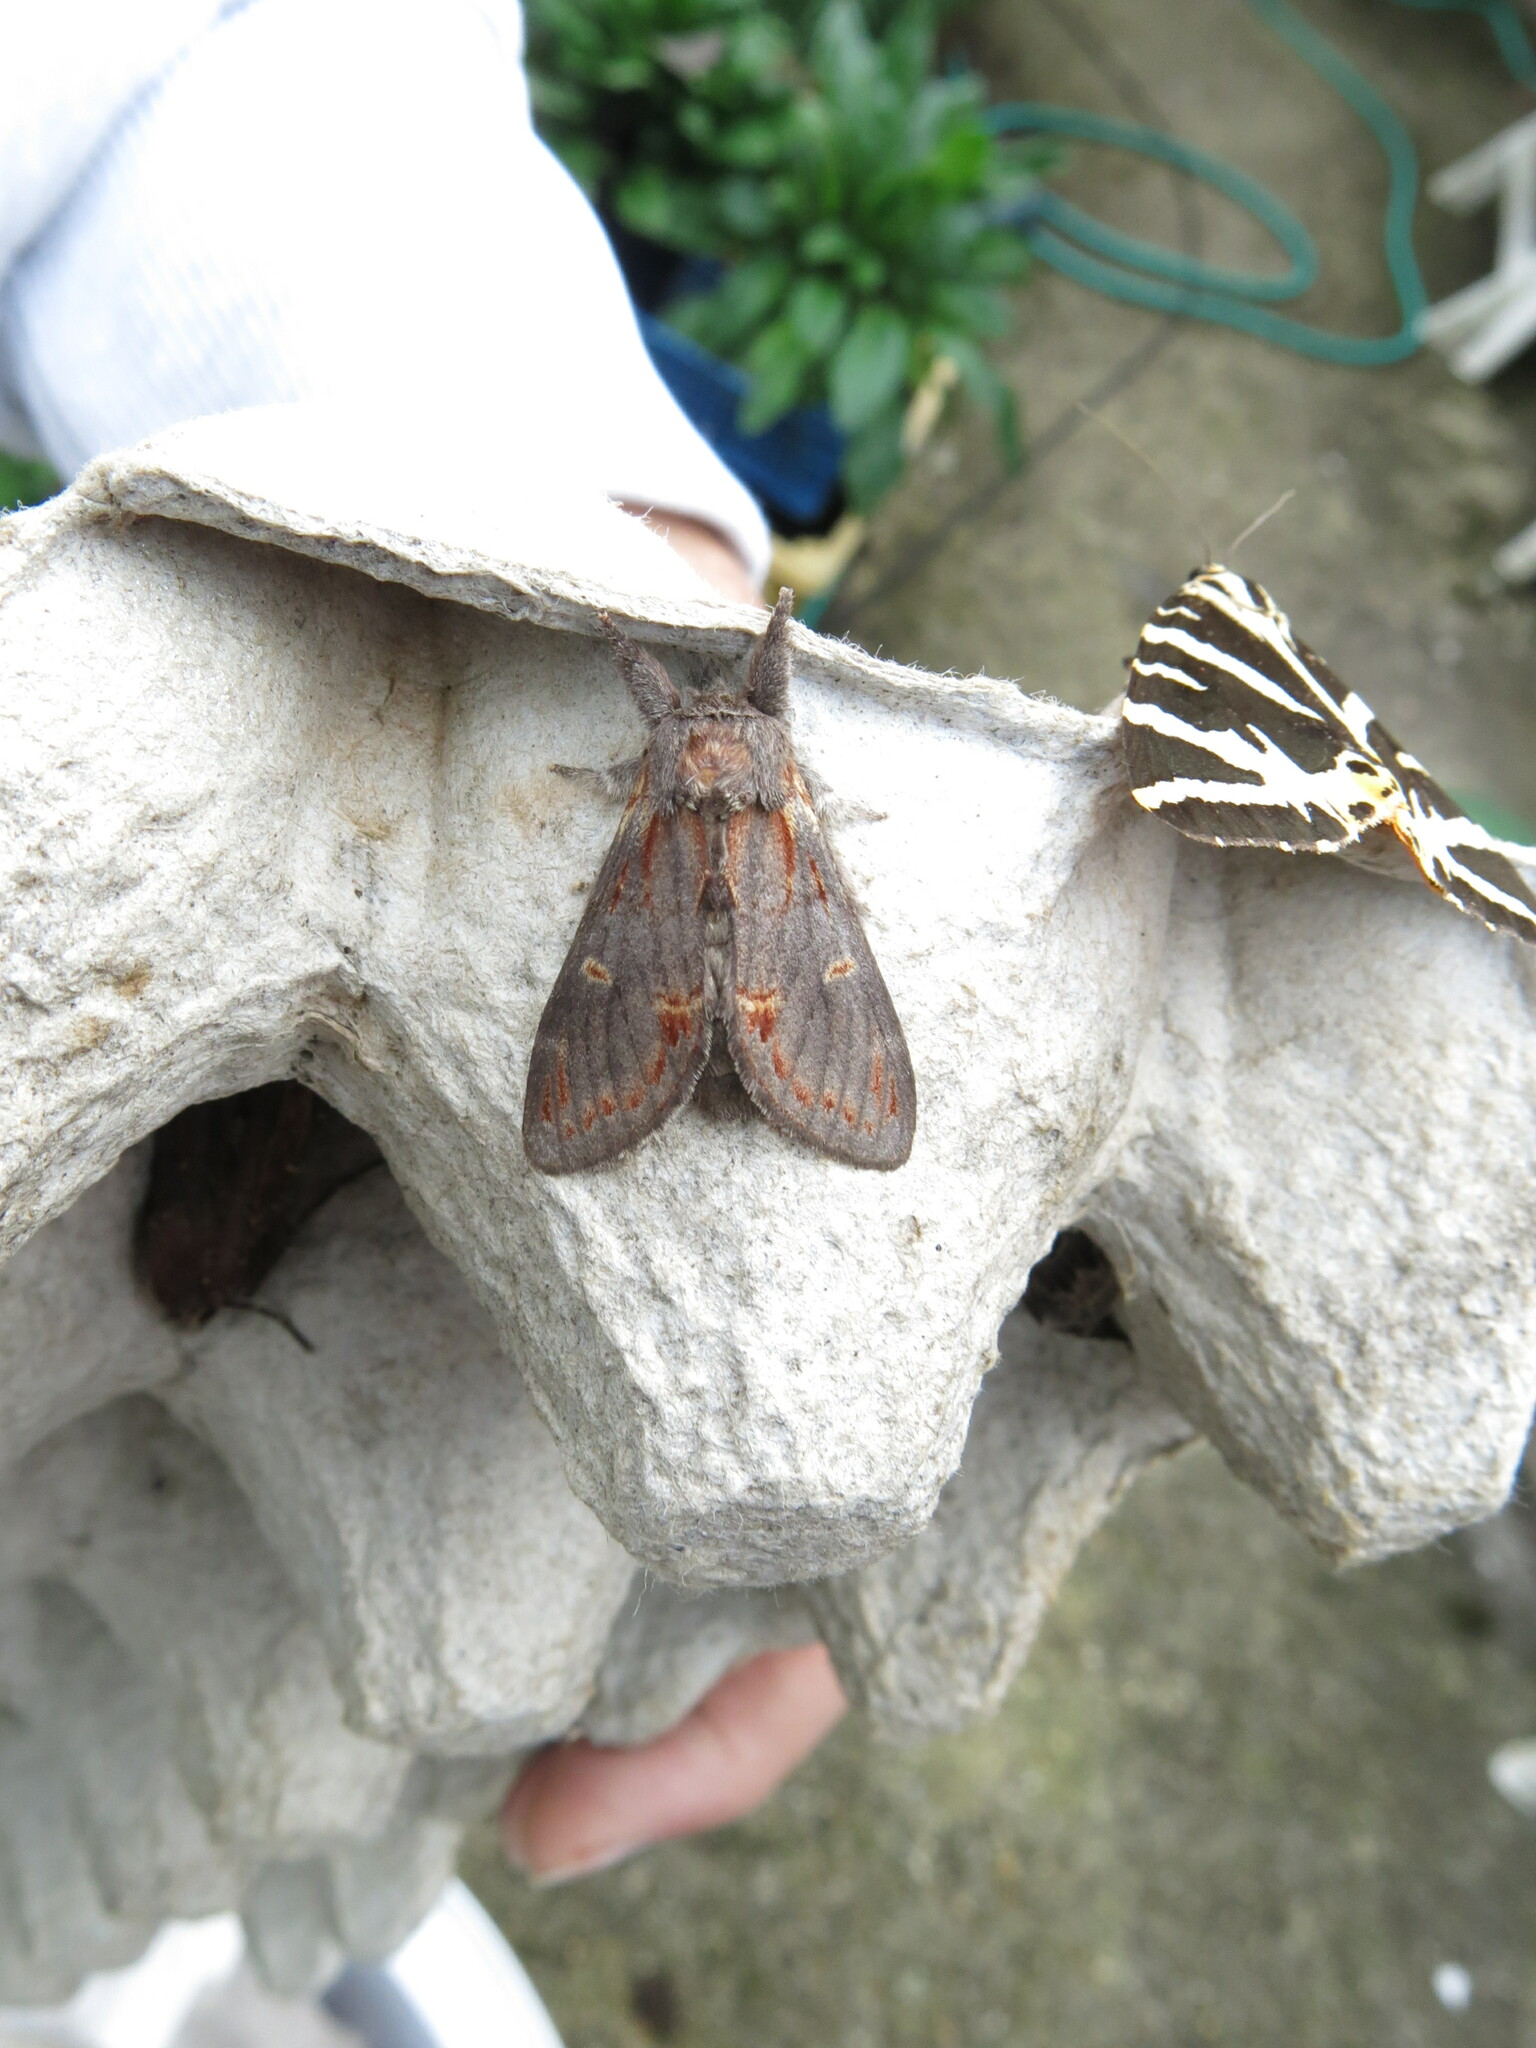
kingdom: Animalia
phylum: Arthropoda
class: Insecta
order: Lepidoptera
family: Notodontidae
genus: Notodonta
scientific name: Notodonta dromedarius
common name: Iron prominent
